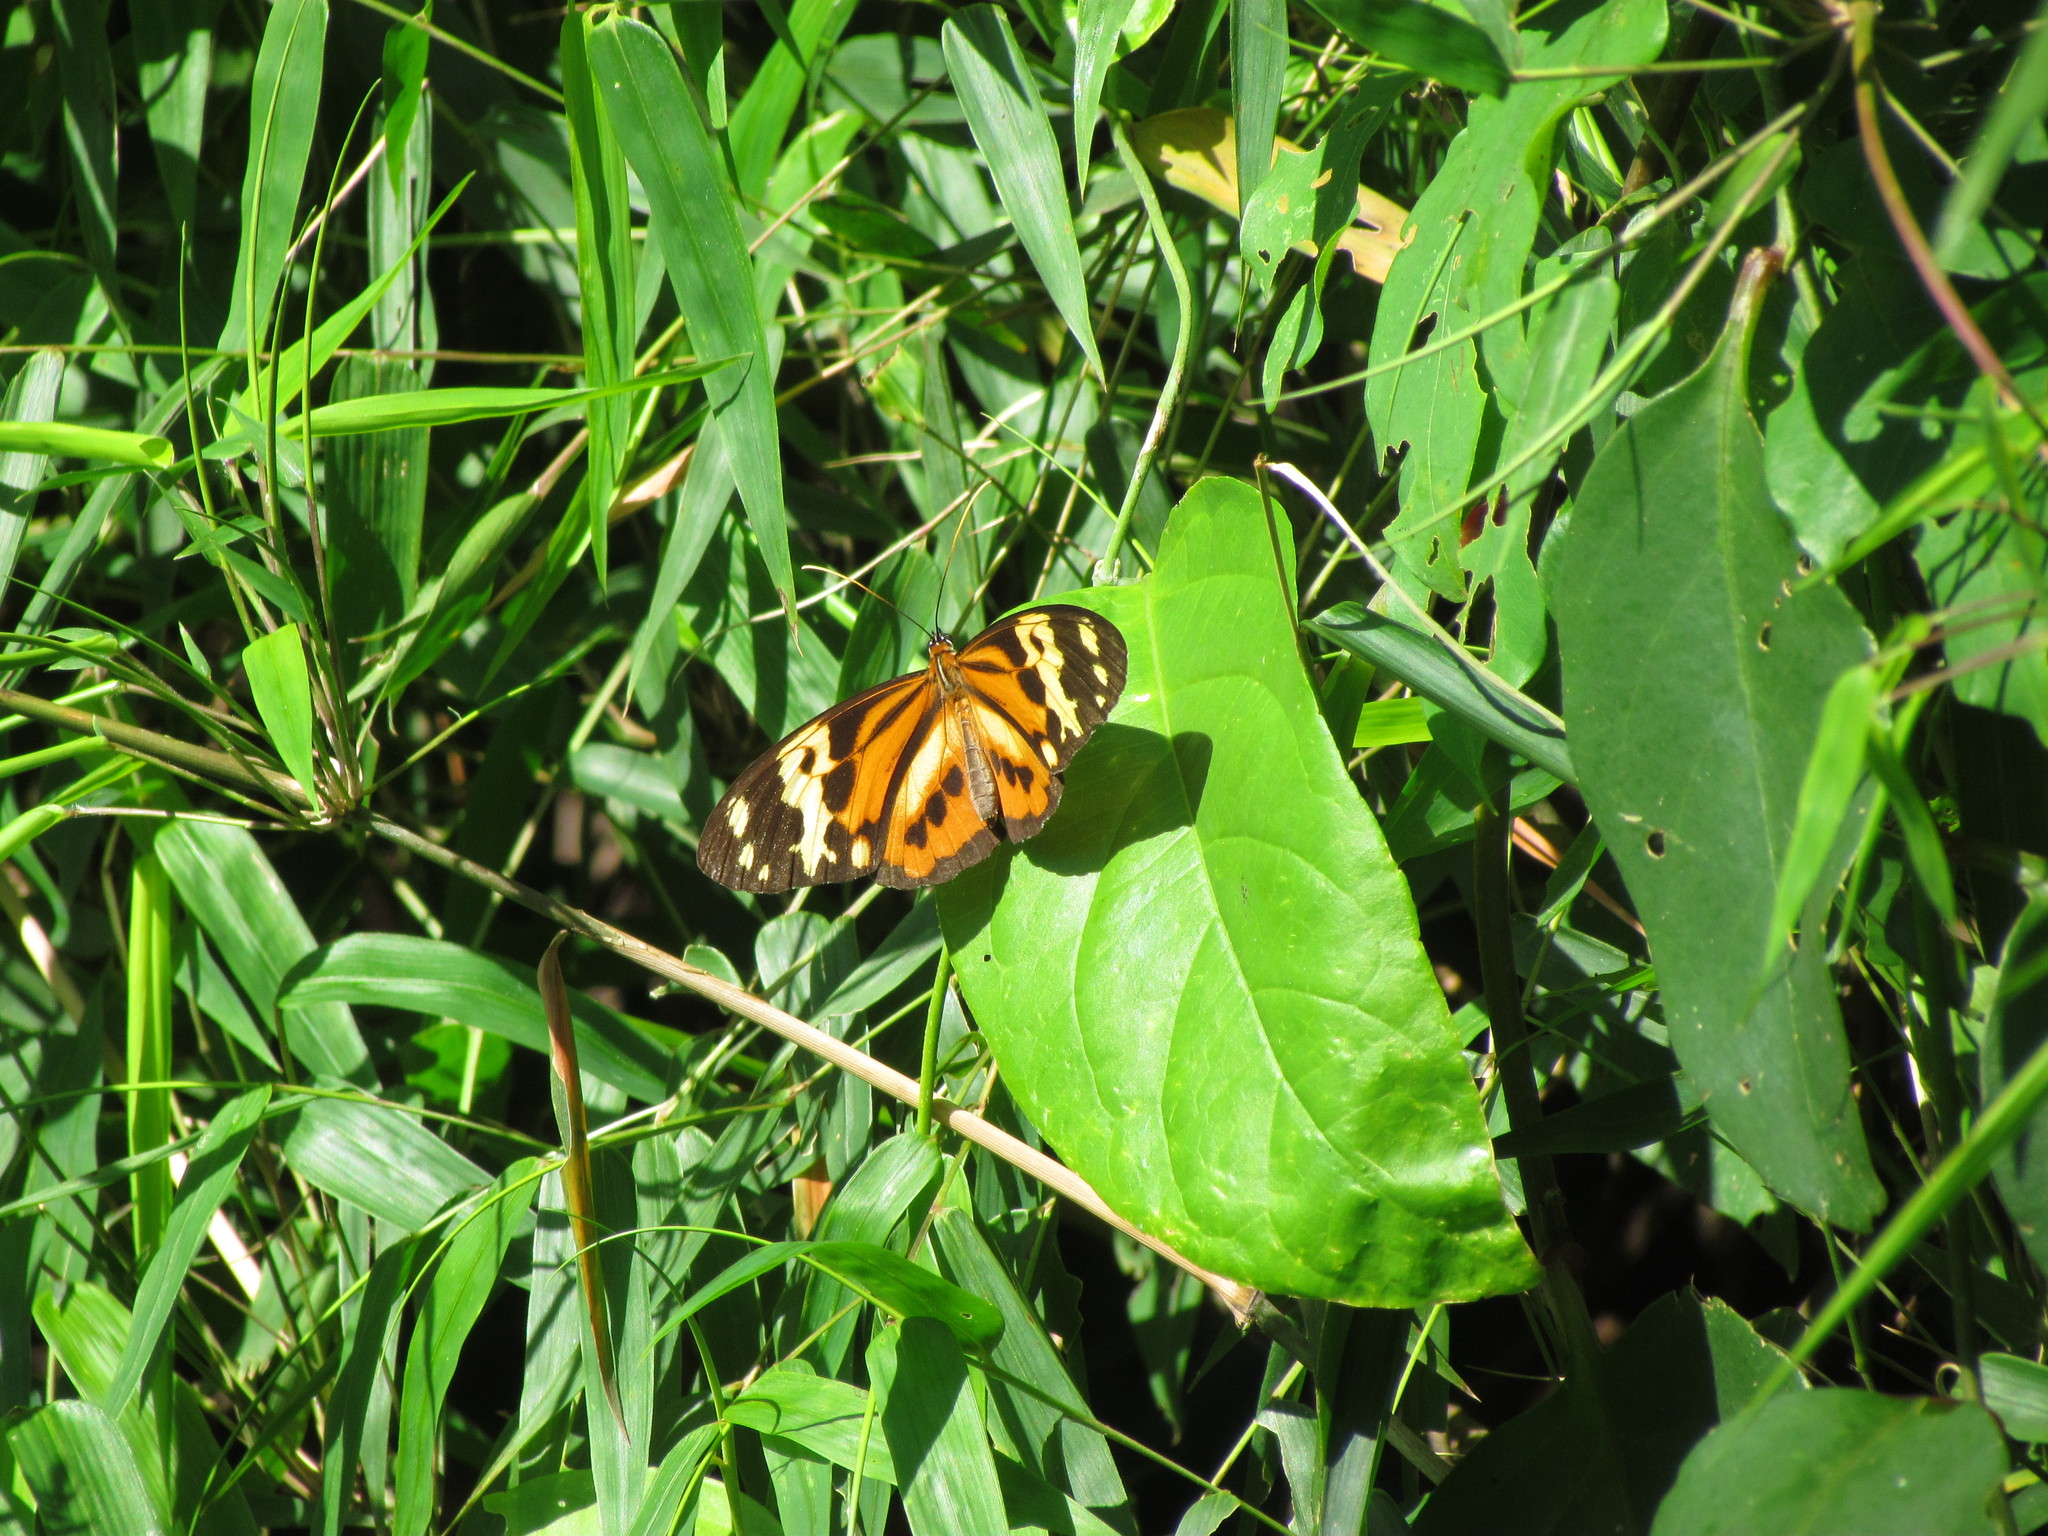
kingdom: Animalia
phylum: Arthropoda
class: Insecta
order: Lepidoptera
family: Nymphalidae
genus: Tithorea
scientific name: Tithorea harmonia
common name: Harmonia tigerwing
